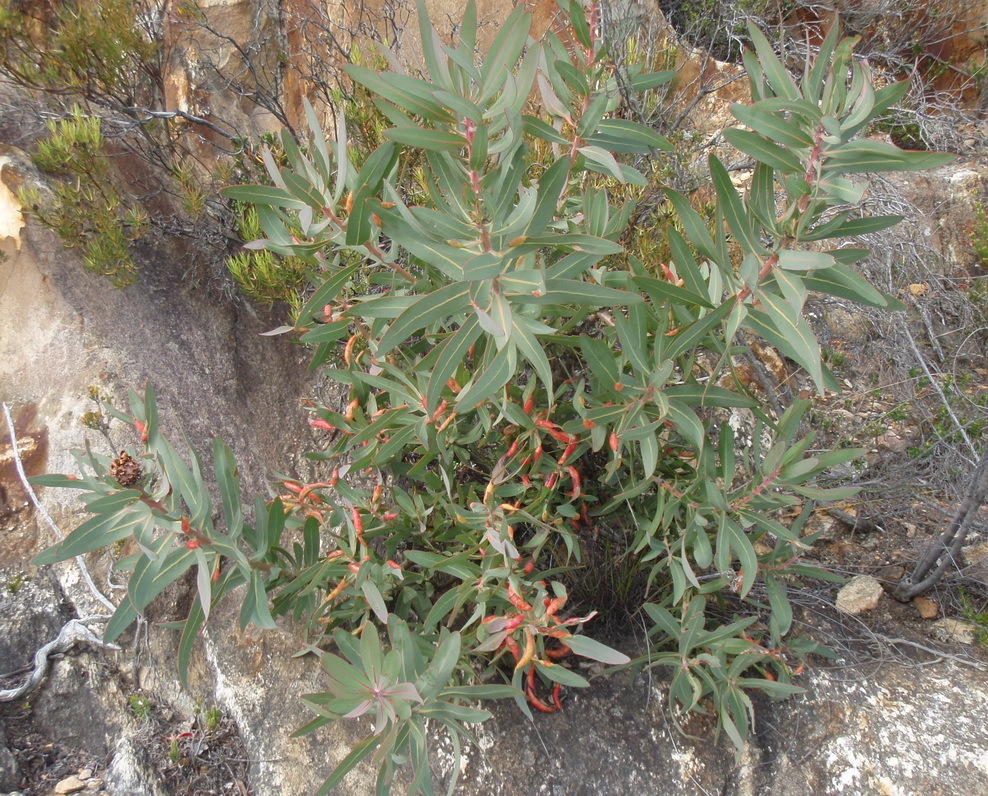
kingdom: Plantae
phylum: Tracheophyta
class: Magnoliopsida
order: Proteales
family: Proteaceae
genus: Protea
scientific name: Protea neriifolia
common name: Blue sugarbush
